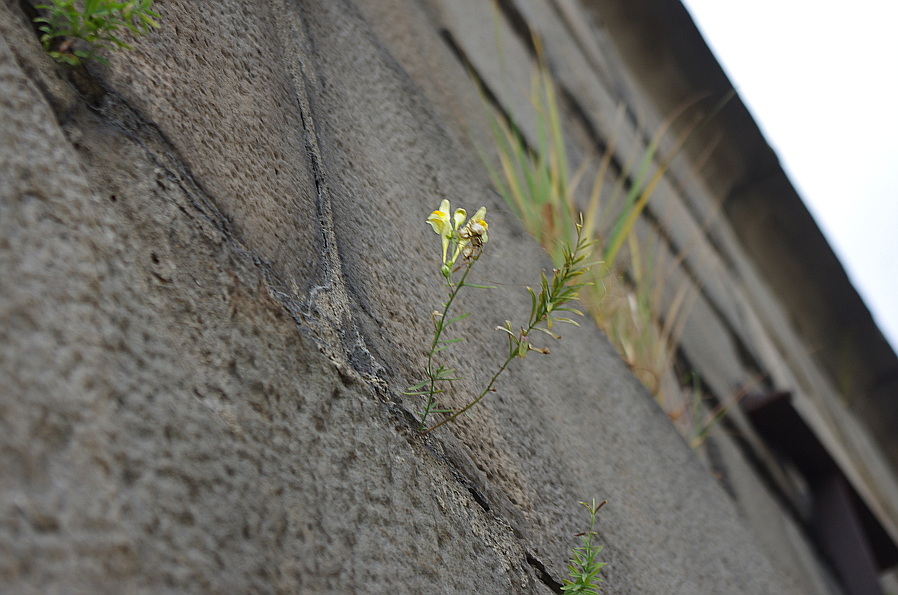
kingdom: Plantae
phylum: Tracheophyta
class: Magnoliopsida
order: Lamiales
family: Plantaginaceae
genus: Linaria
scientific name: Linaria vulgaris
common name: Butter and eggs
